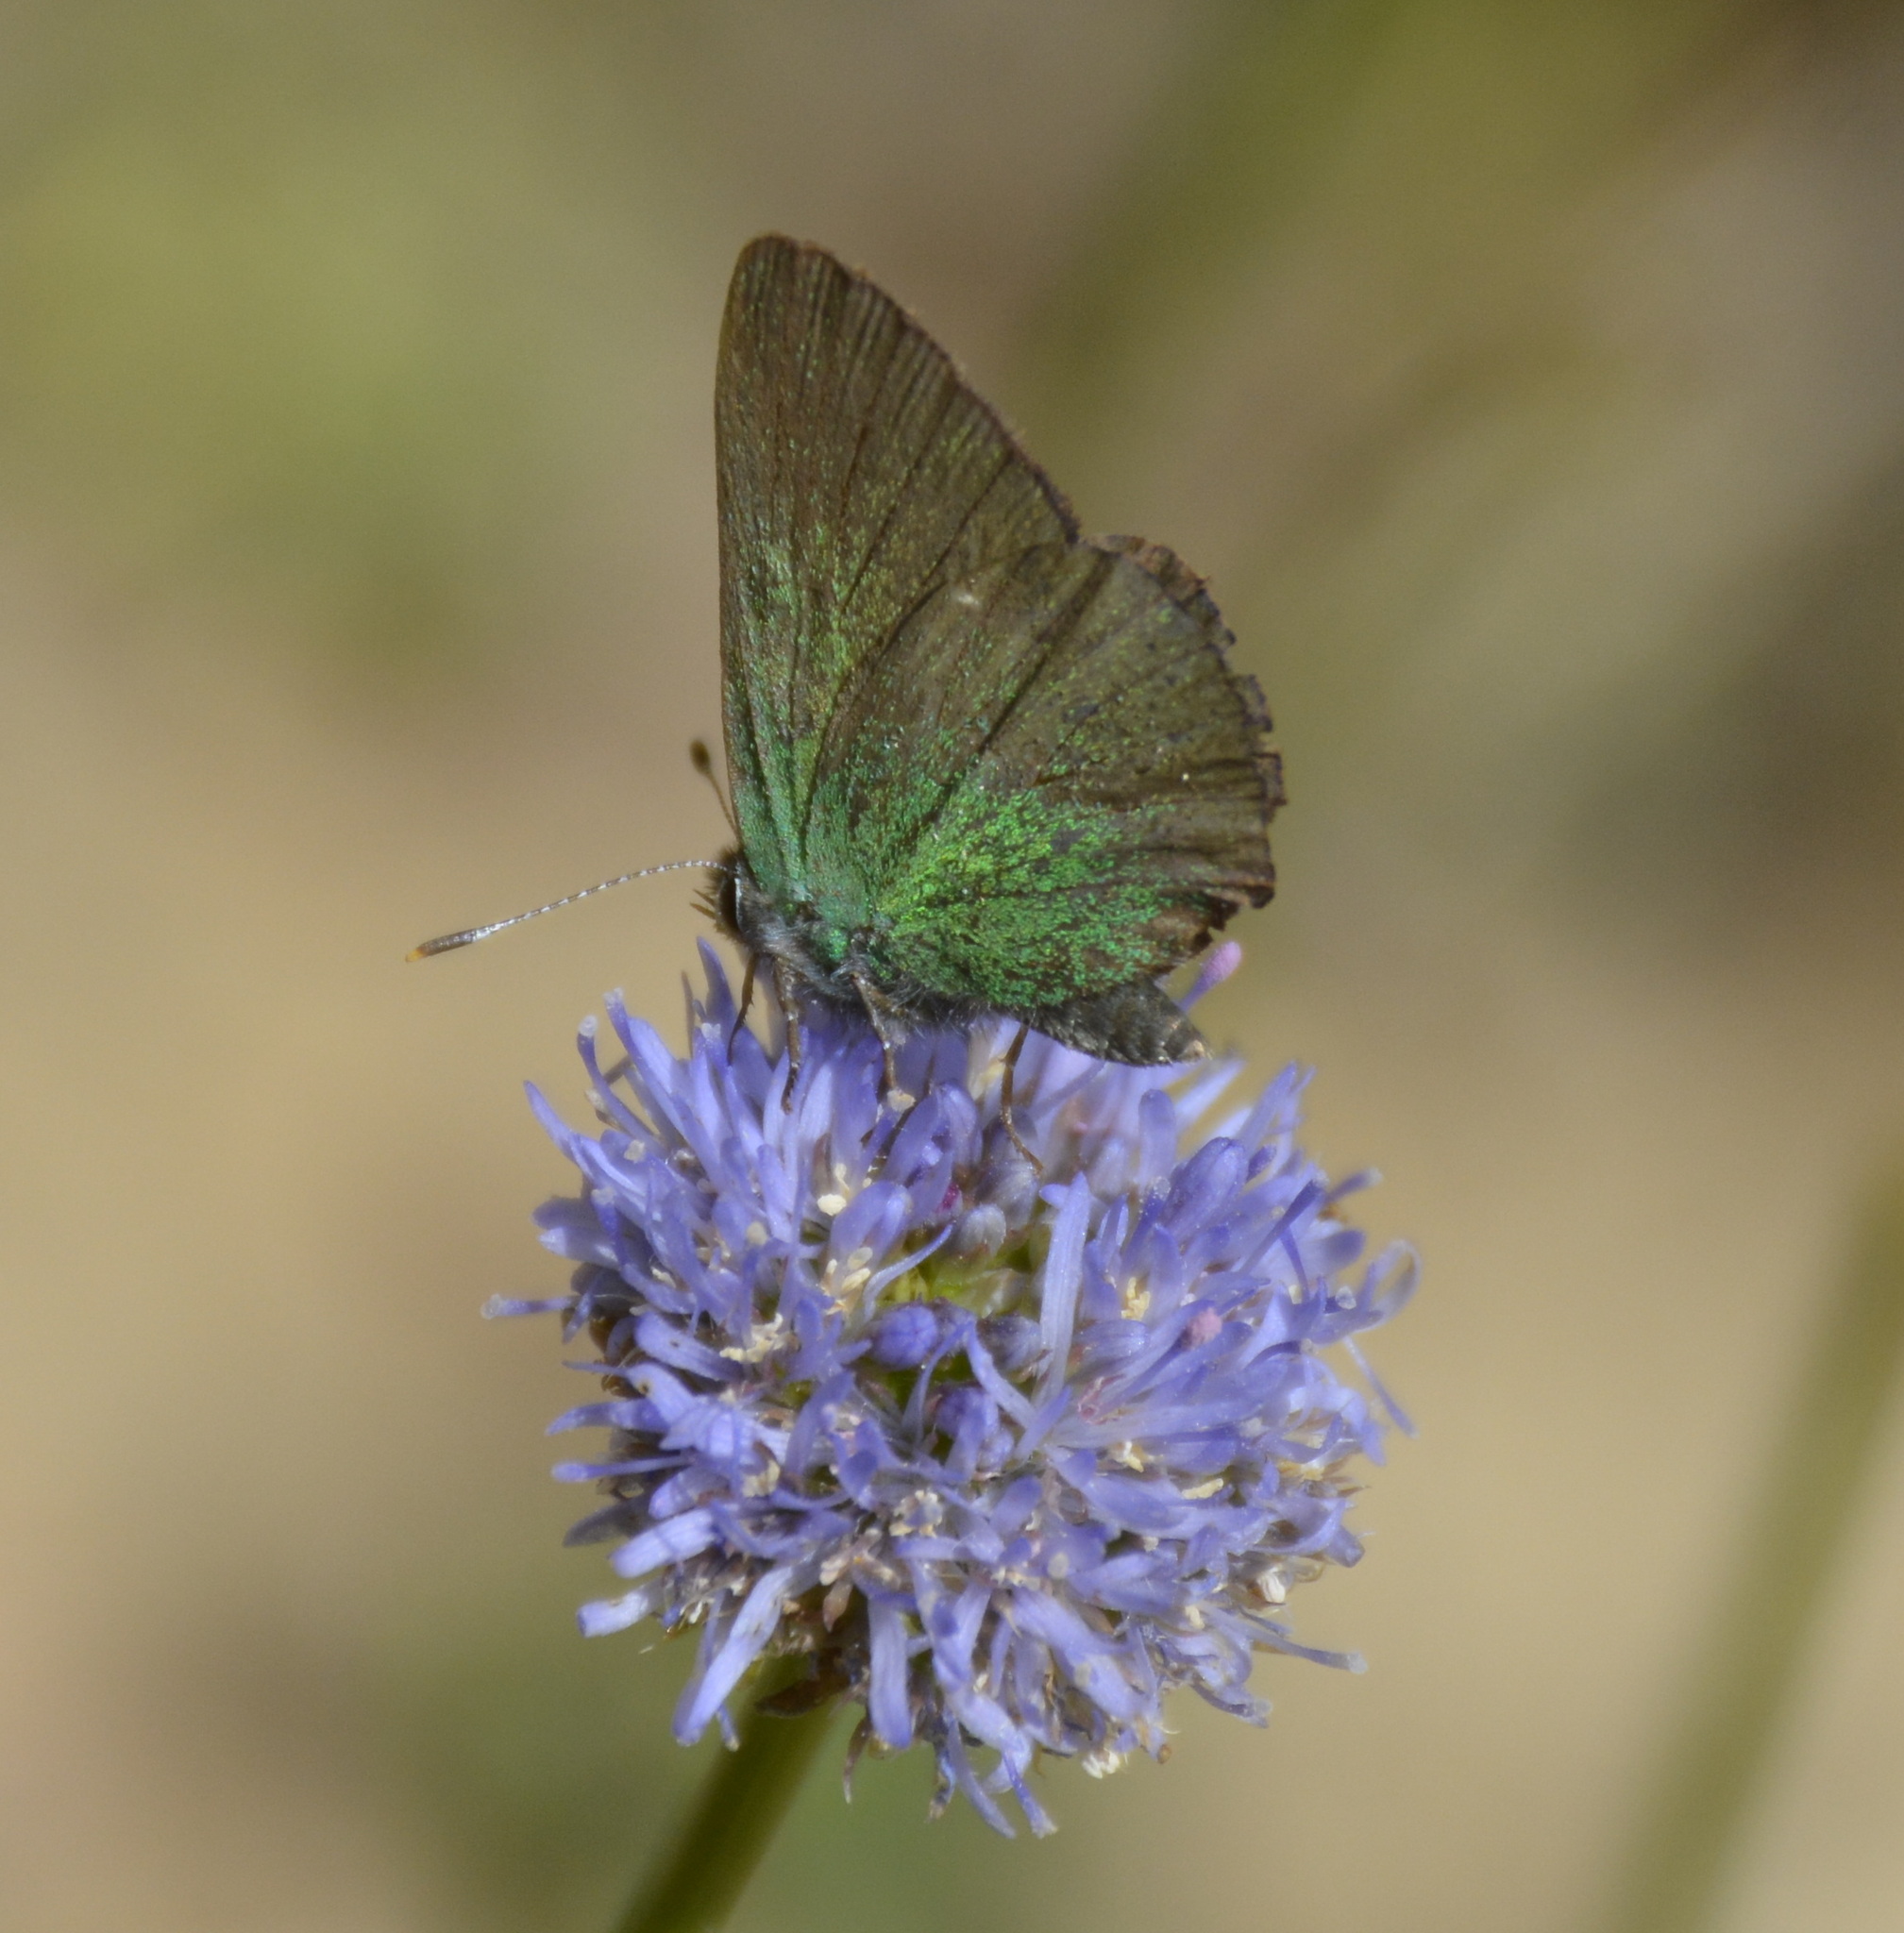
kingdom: Animalia
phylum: Arthropoda
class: Insecta
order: Lepidoptera
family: Lycaenidae
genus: Callophrys
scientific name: Callophrys rubi
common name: Green hairstreak
